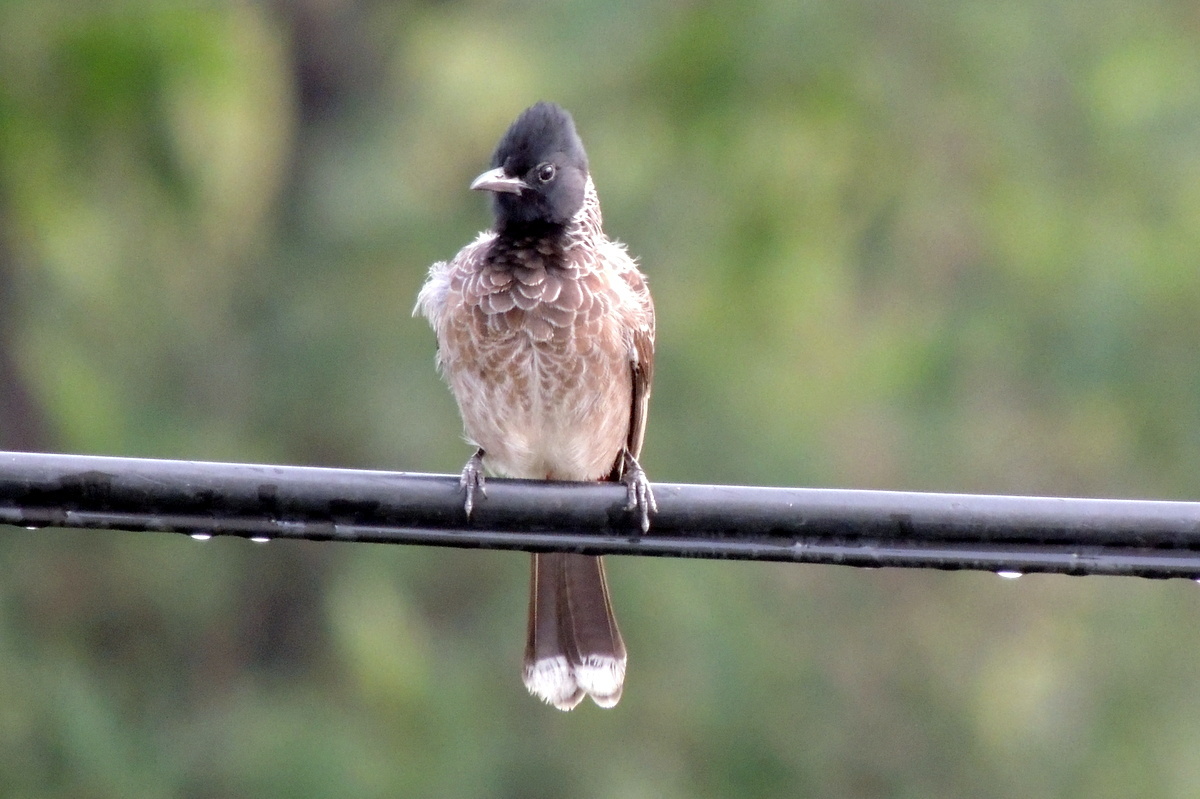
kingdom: Animalia
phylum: Chordata
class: Aves
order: Passeriformes
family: Pycnonotidae
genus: Pycnonotus
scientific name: Pycnonotus cafer
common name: Red-vented bulbul
